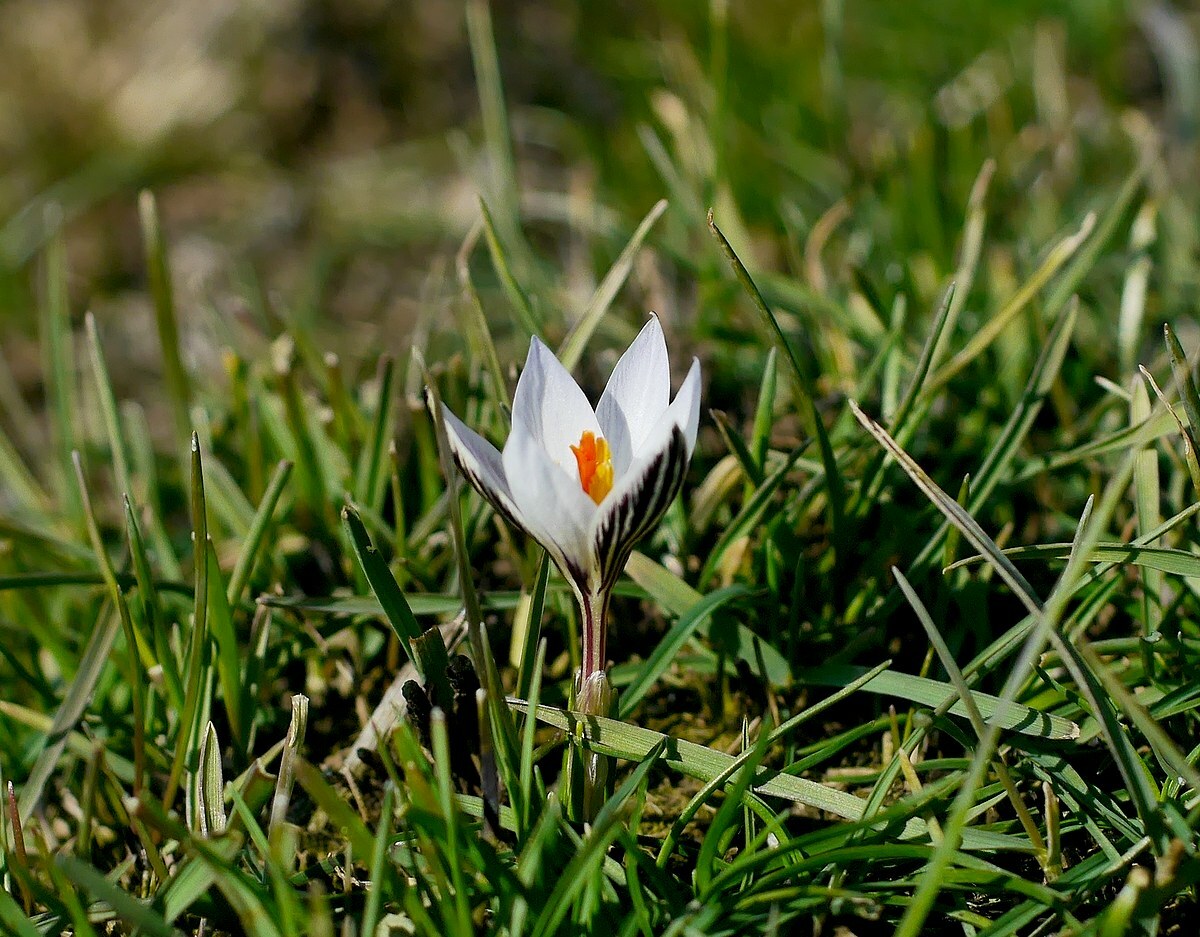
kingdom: Plantae
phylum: Tracheophyta
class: Liliopsida
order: Asparagales
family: Iridaceae
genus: Crocus
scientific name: Crocus reticulatus
